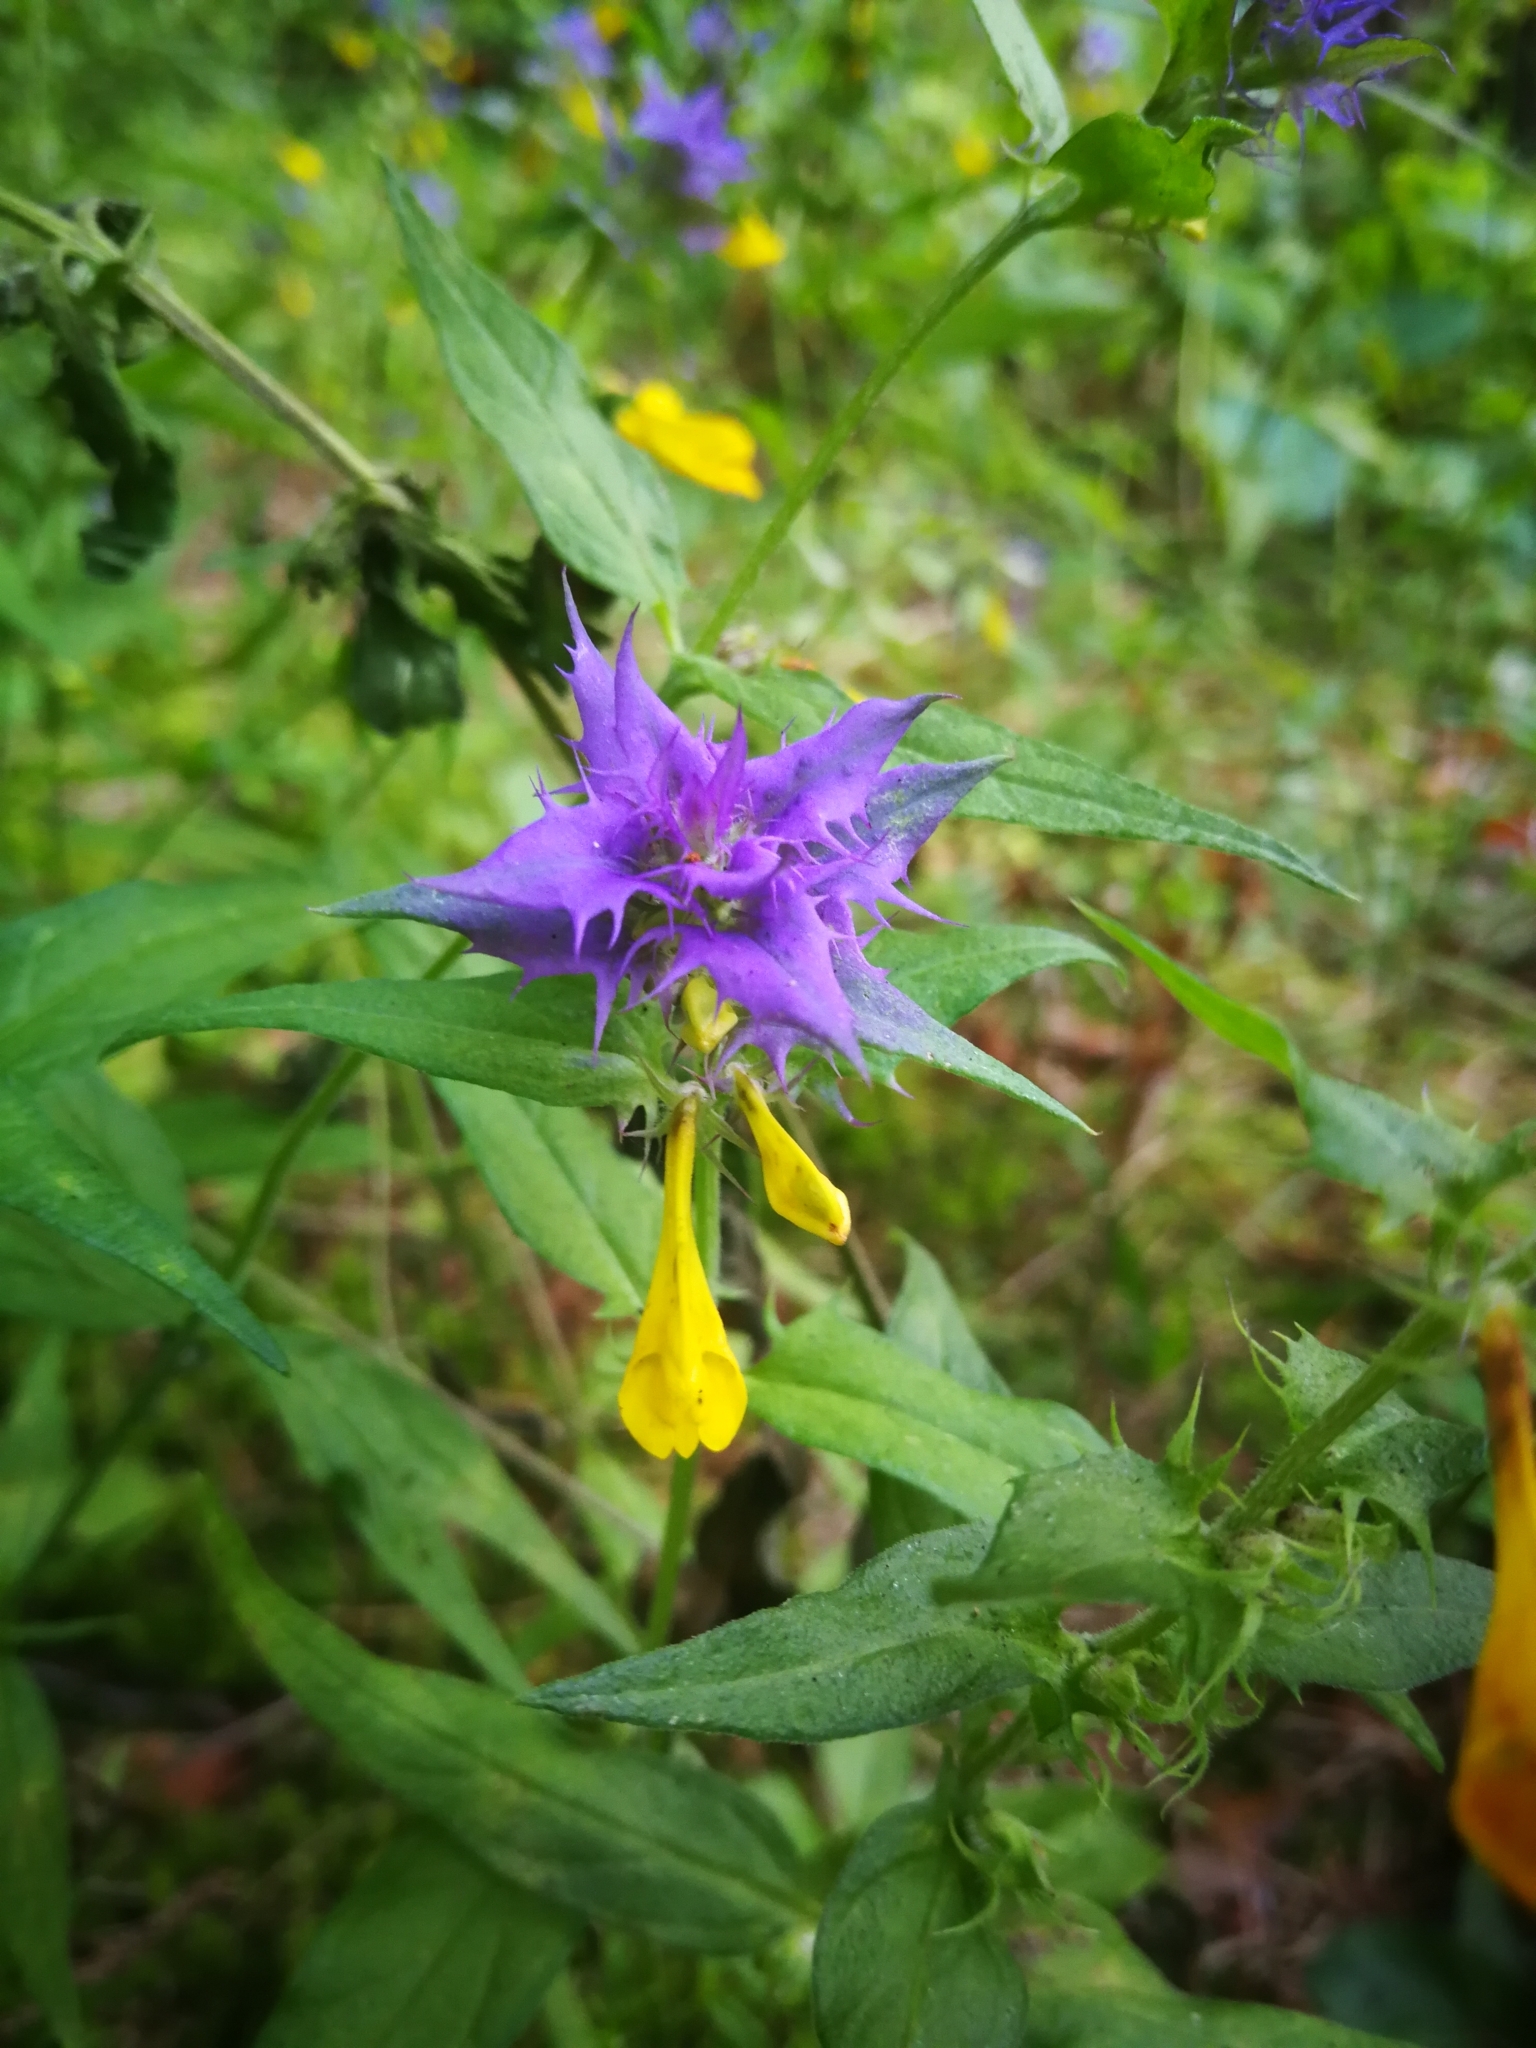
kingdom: Plantae
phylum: Tracheophyta
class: Magnoliopsida
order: Lamiales
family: Orobanchaceae
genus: Melampyrum
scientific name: Melampyrum nemorosum
